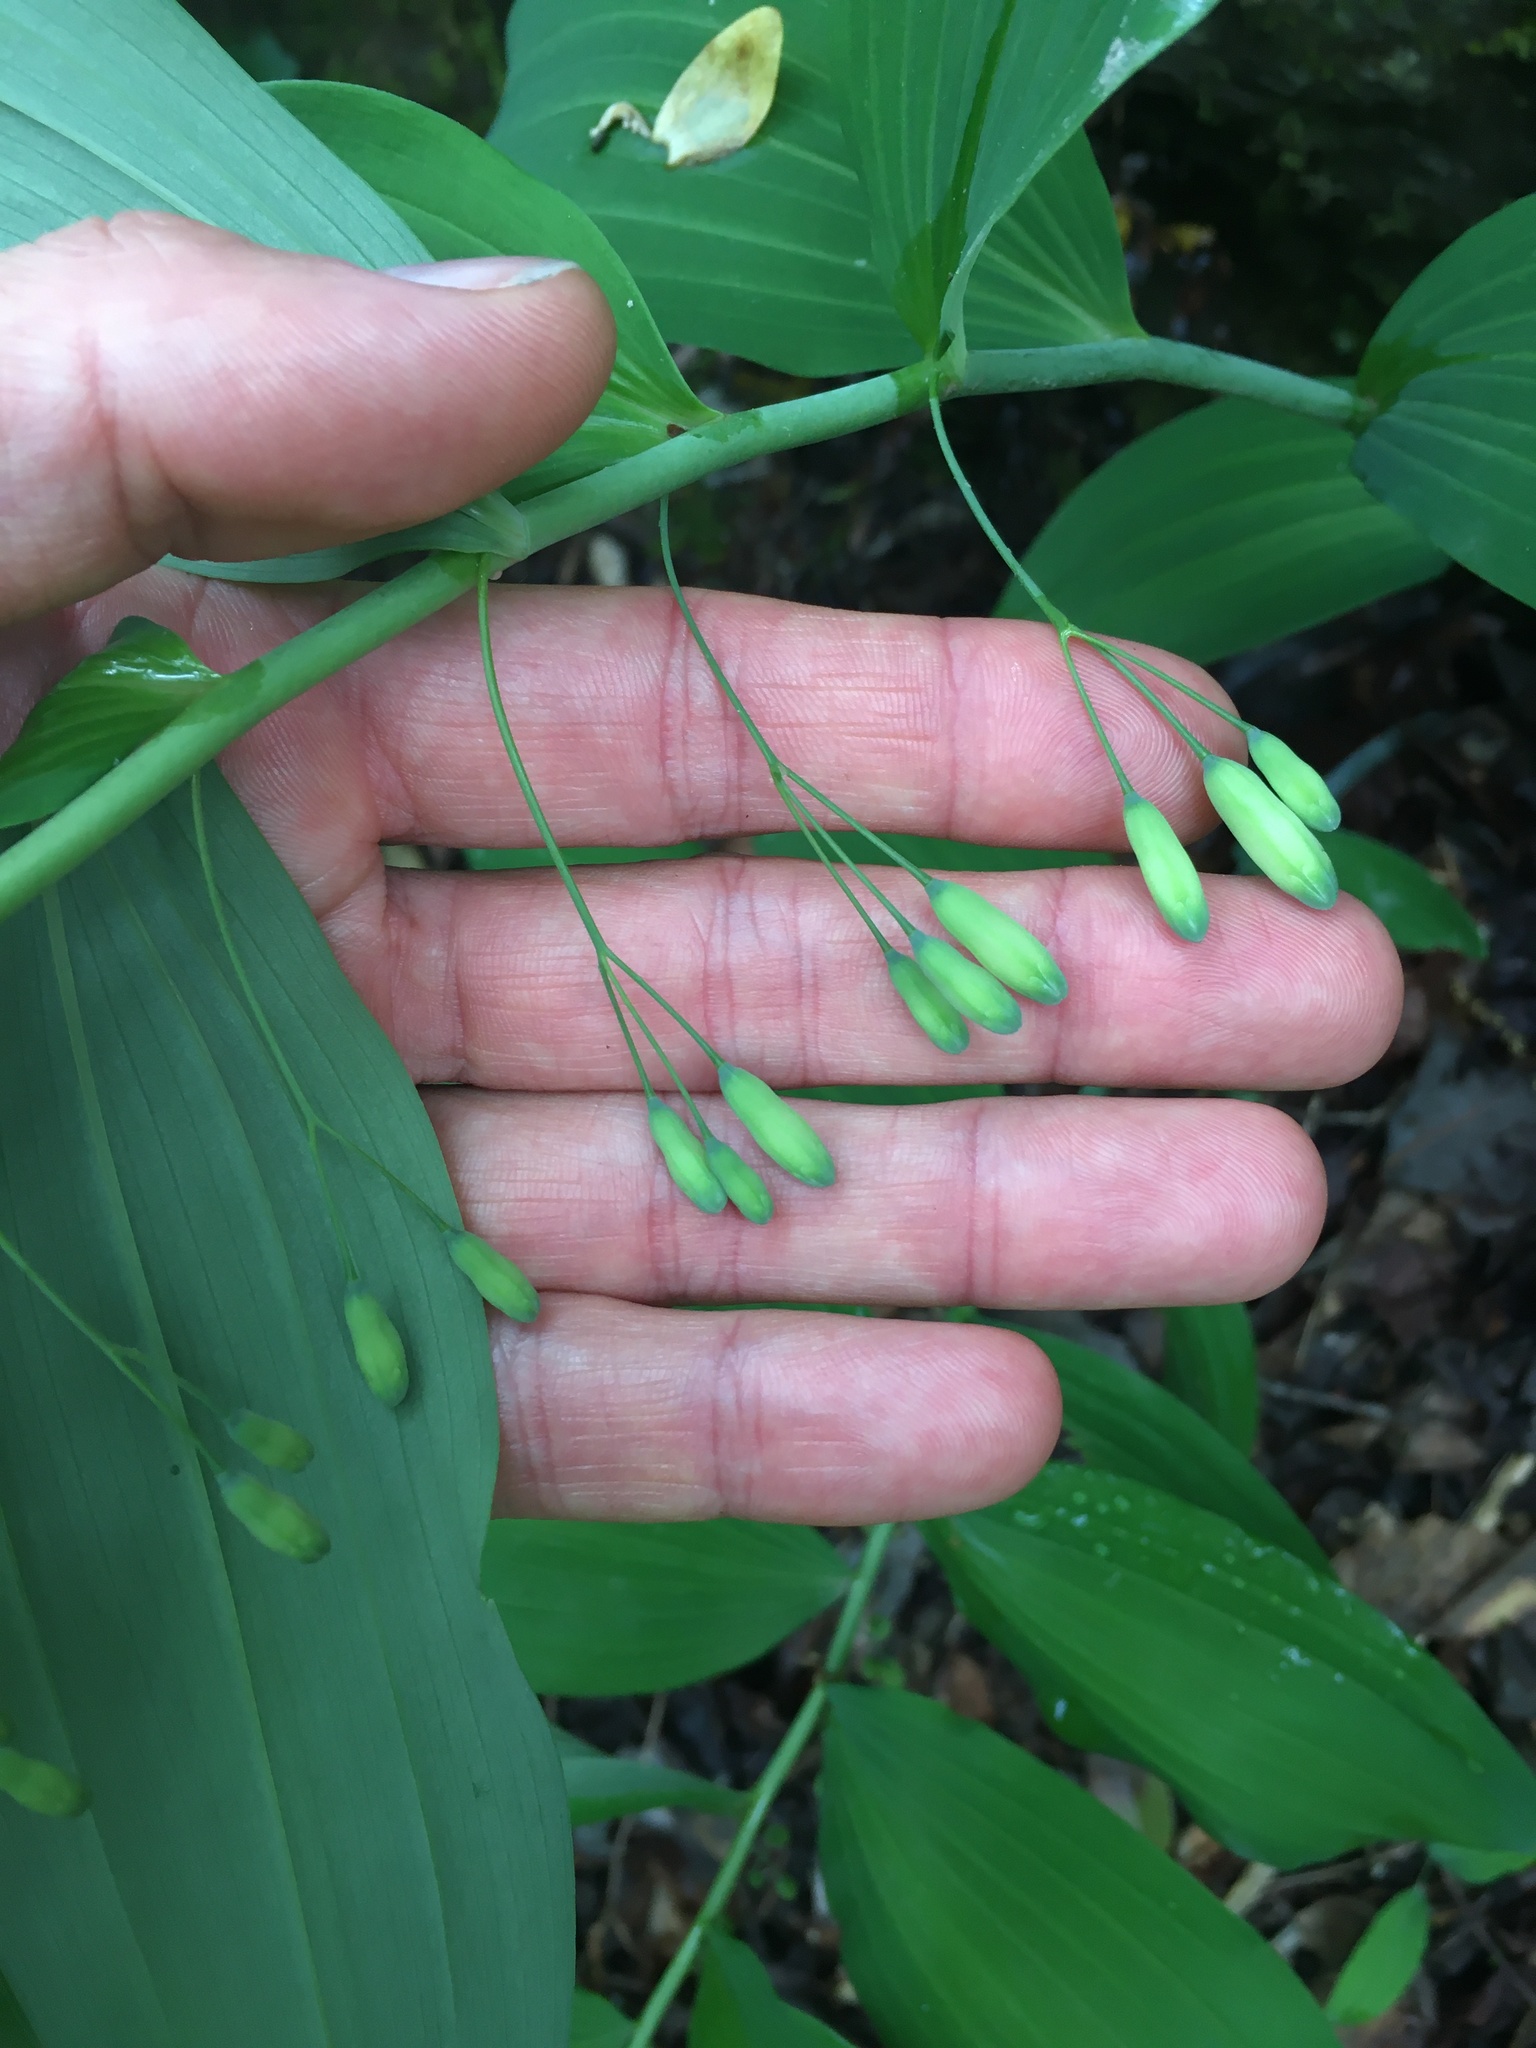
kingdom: Plantae
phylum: Tracheophyta
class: Liliopsida
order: Asparagales
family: Asparagaceae
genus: Polygonatum
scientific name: Polygonatum biflorum
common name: American solomon's-seal
